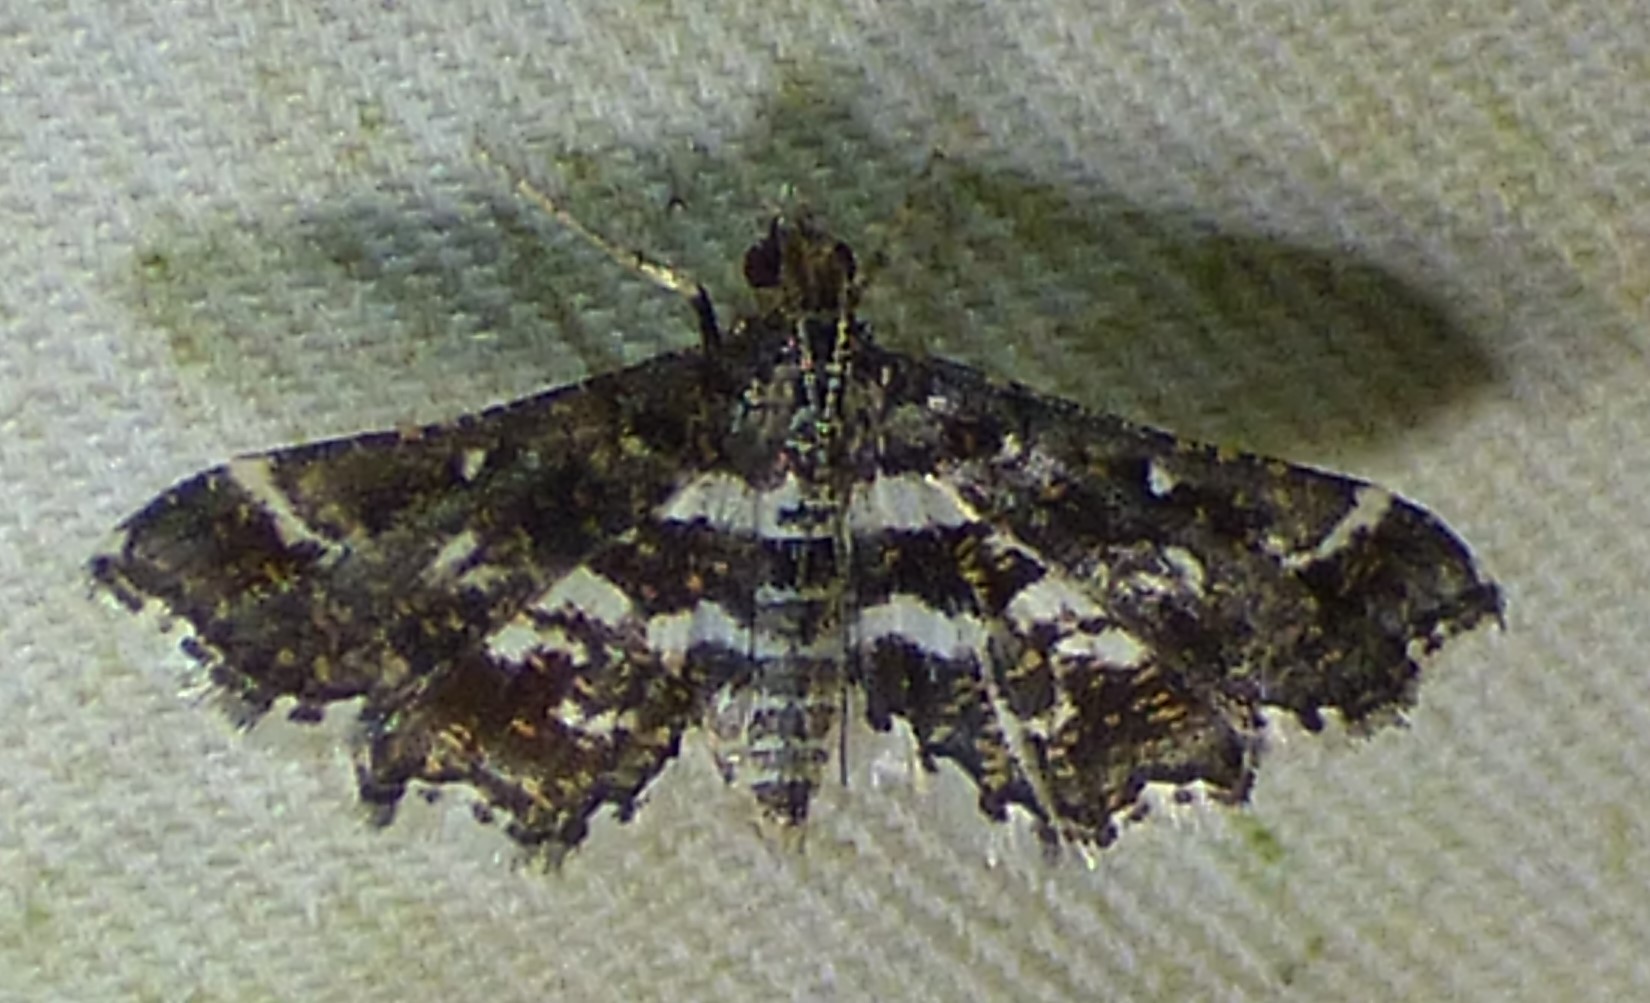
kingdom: Animalia
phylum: Arthropoda
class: Insecta
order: Lepidoptera
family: Crambidae
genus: Diasemiopsis
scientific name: Diasemiopsis ramburialis
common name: Vagrant china-mark
